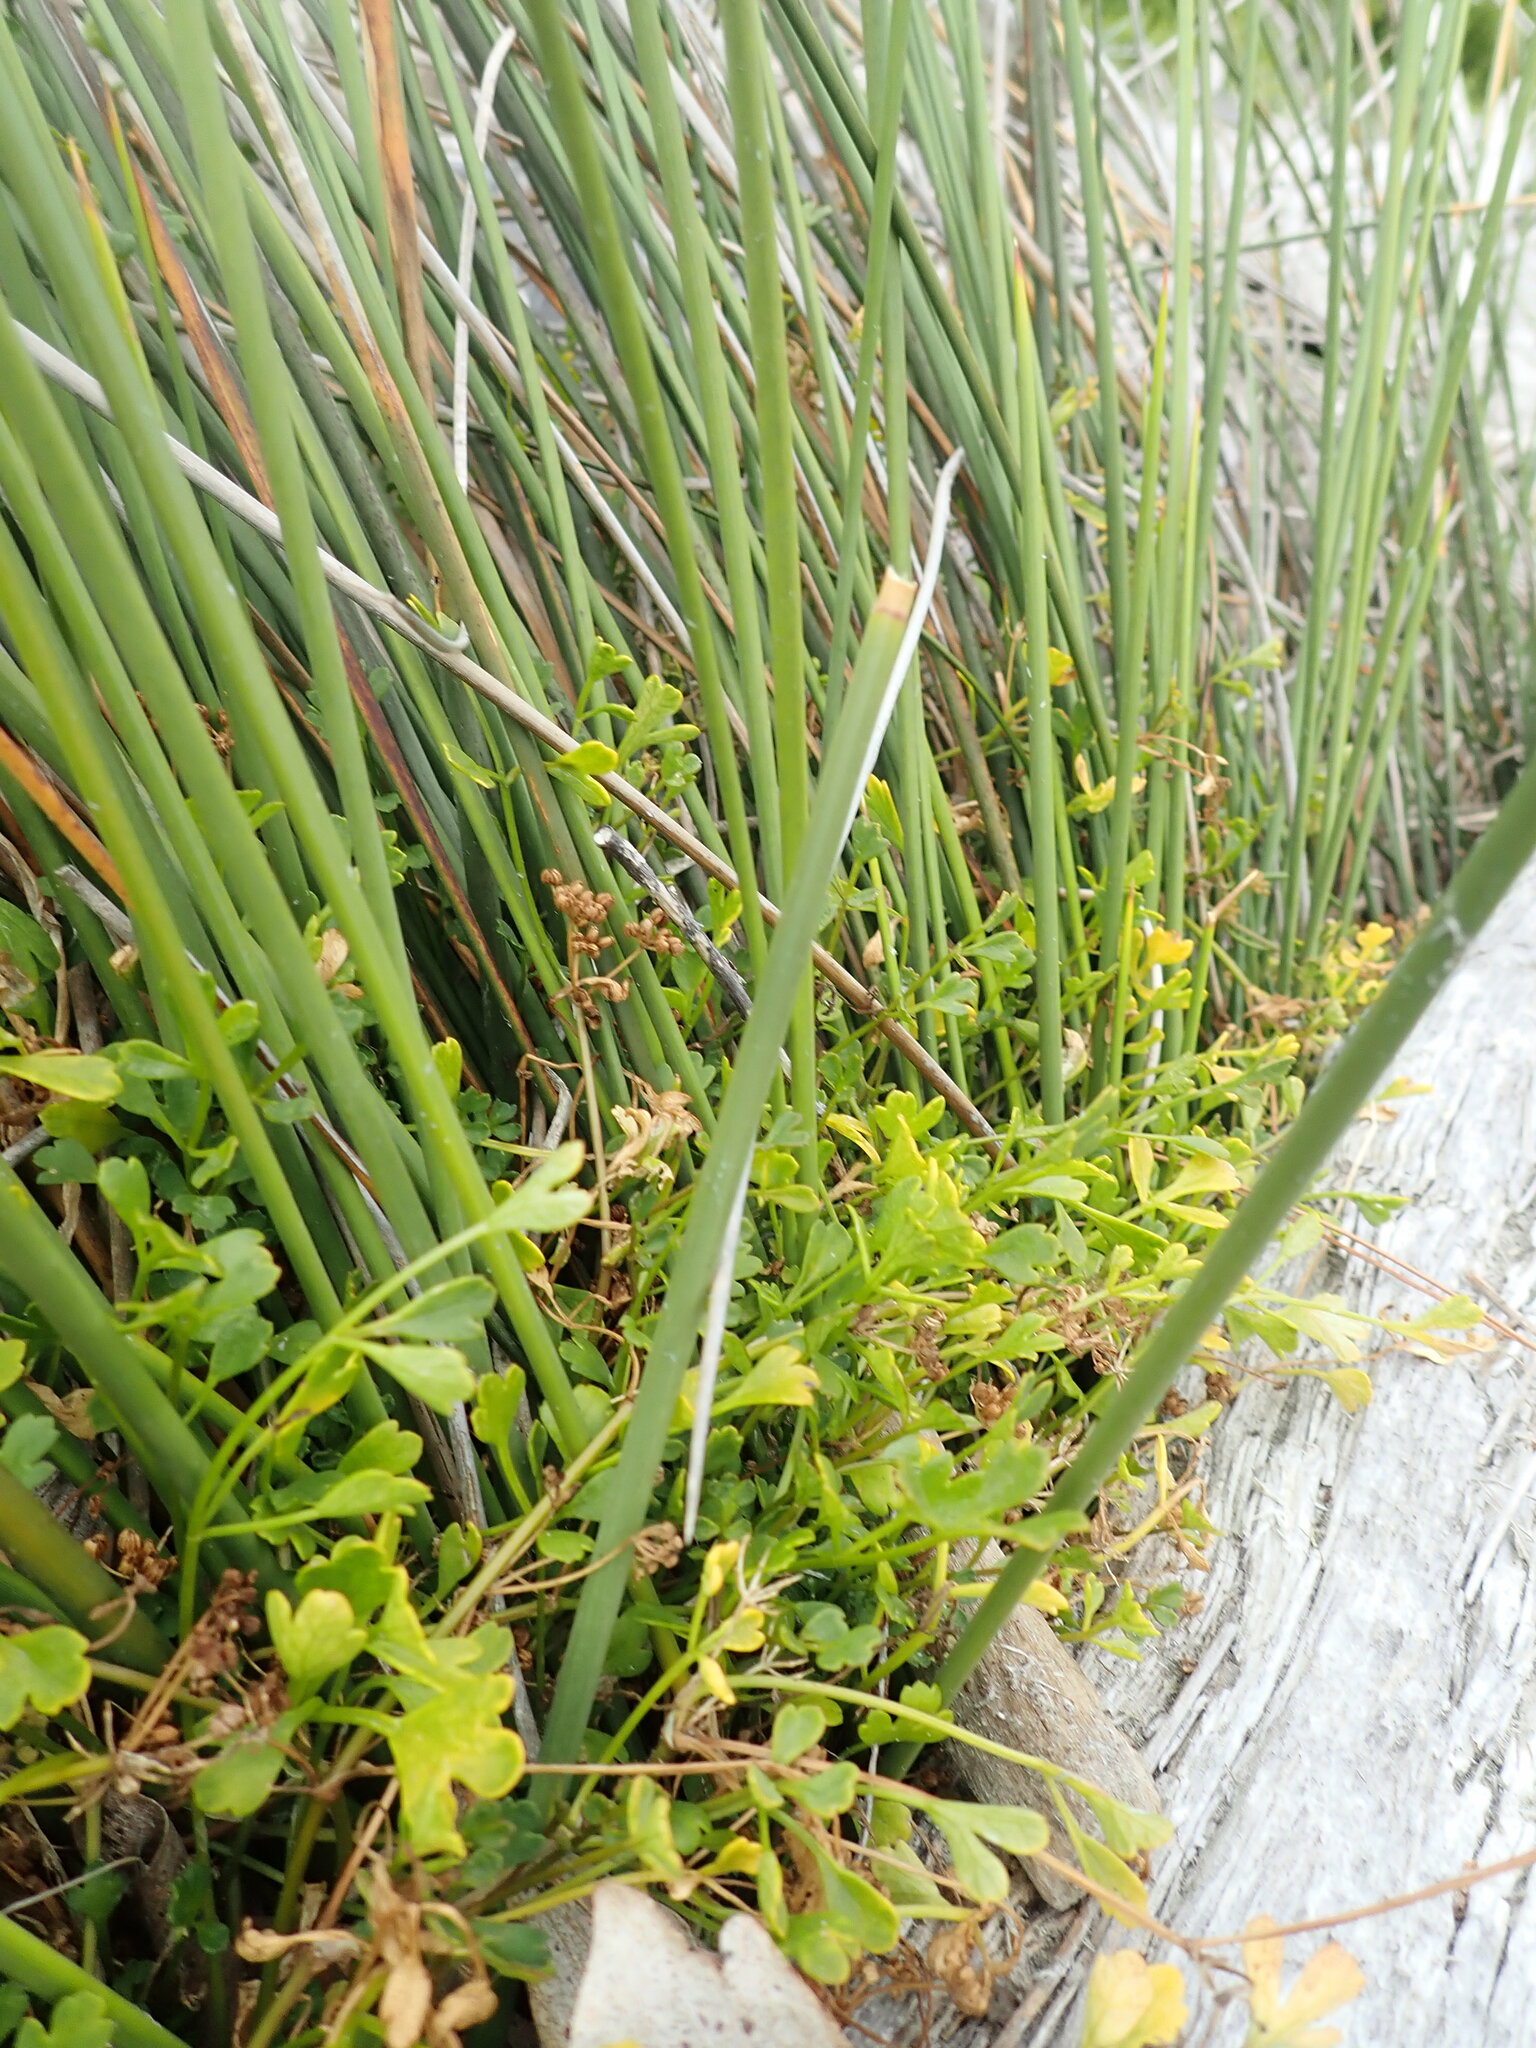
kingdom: Plantae
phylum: Tracheophyta
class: Magnoliopsida
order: Apiales
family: Apiaceae
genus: Apium
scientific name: Apium prostratum
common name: Prostrate marshwort
